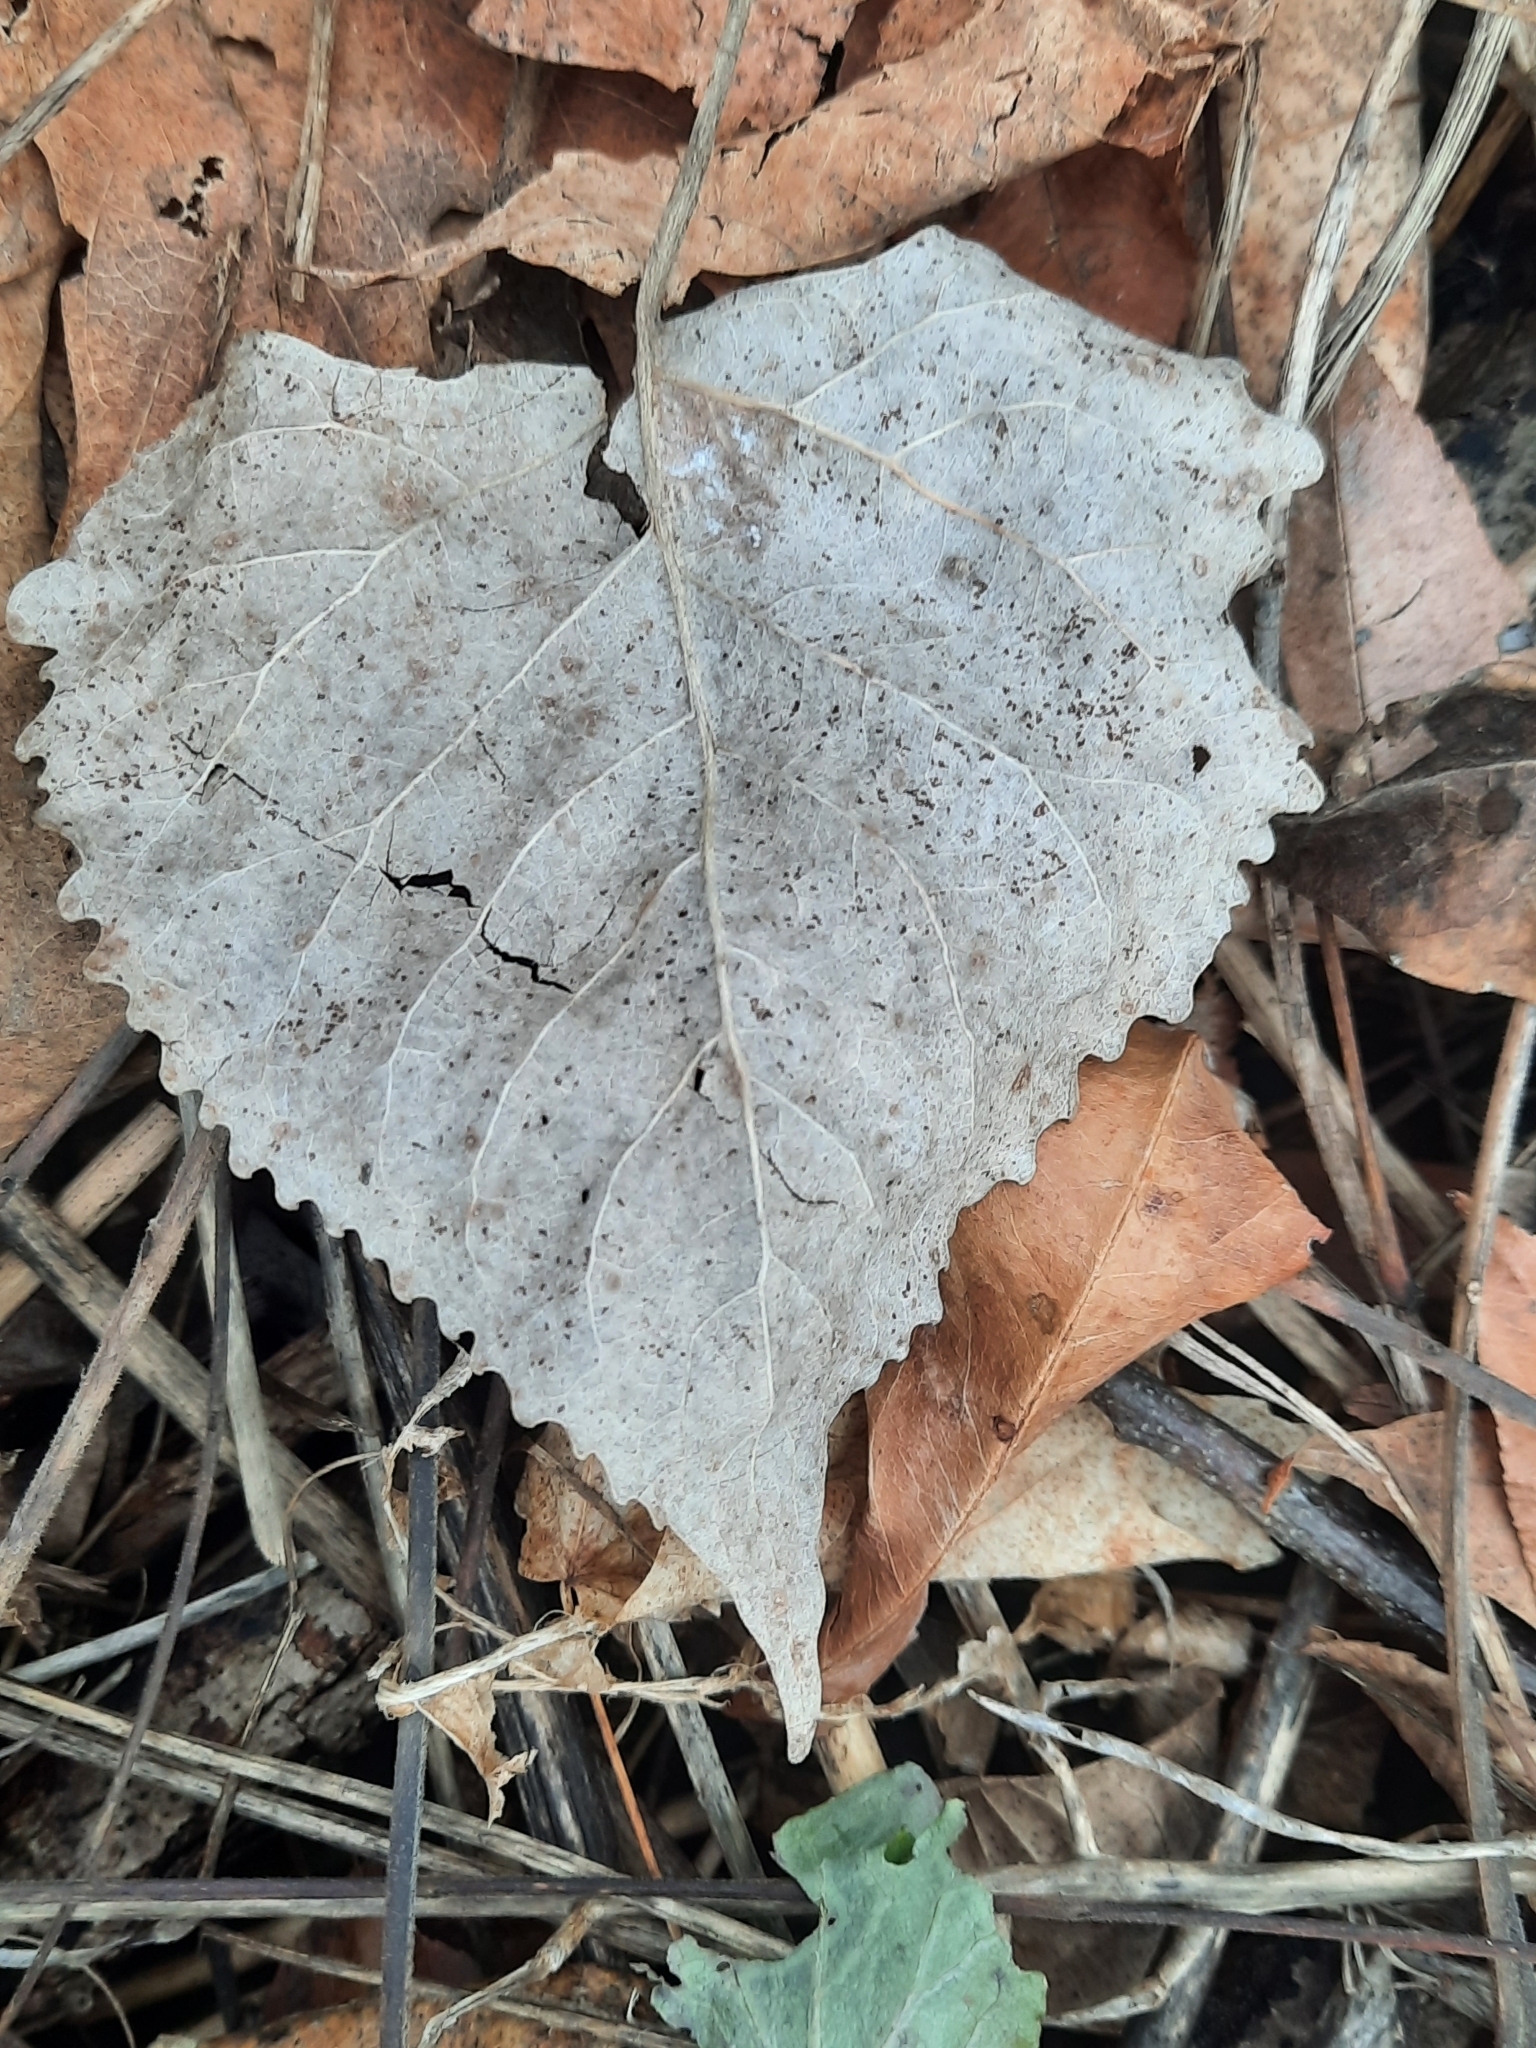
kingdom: Plantae
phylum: Tracheophyta
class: Magnoliopsida
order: Malpighiales
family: Salicaceae
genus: Populus
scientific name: Populus deltoides
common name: Eastern cottonwood
